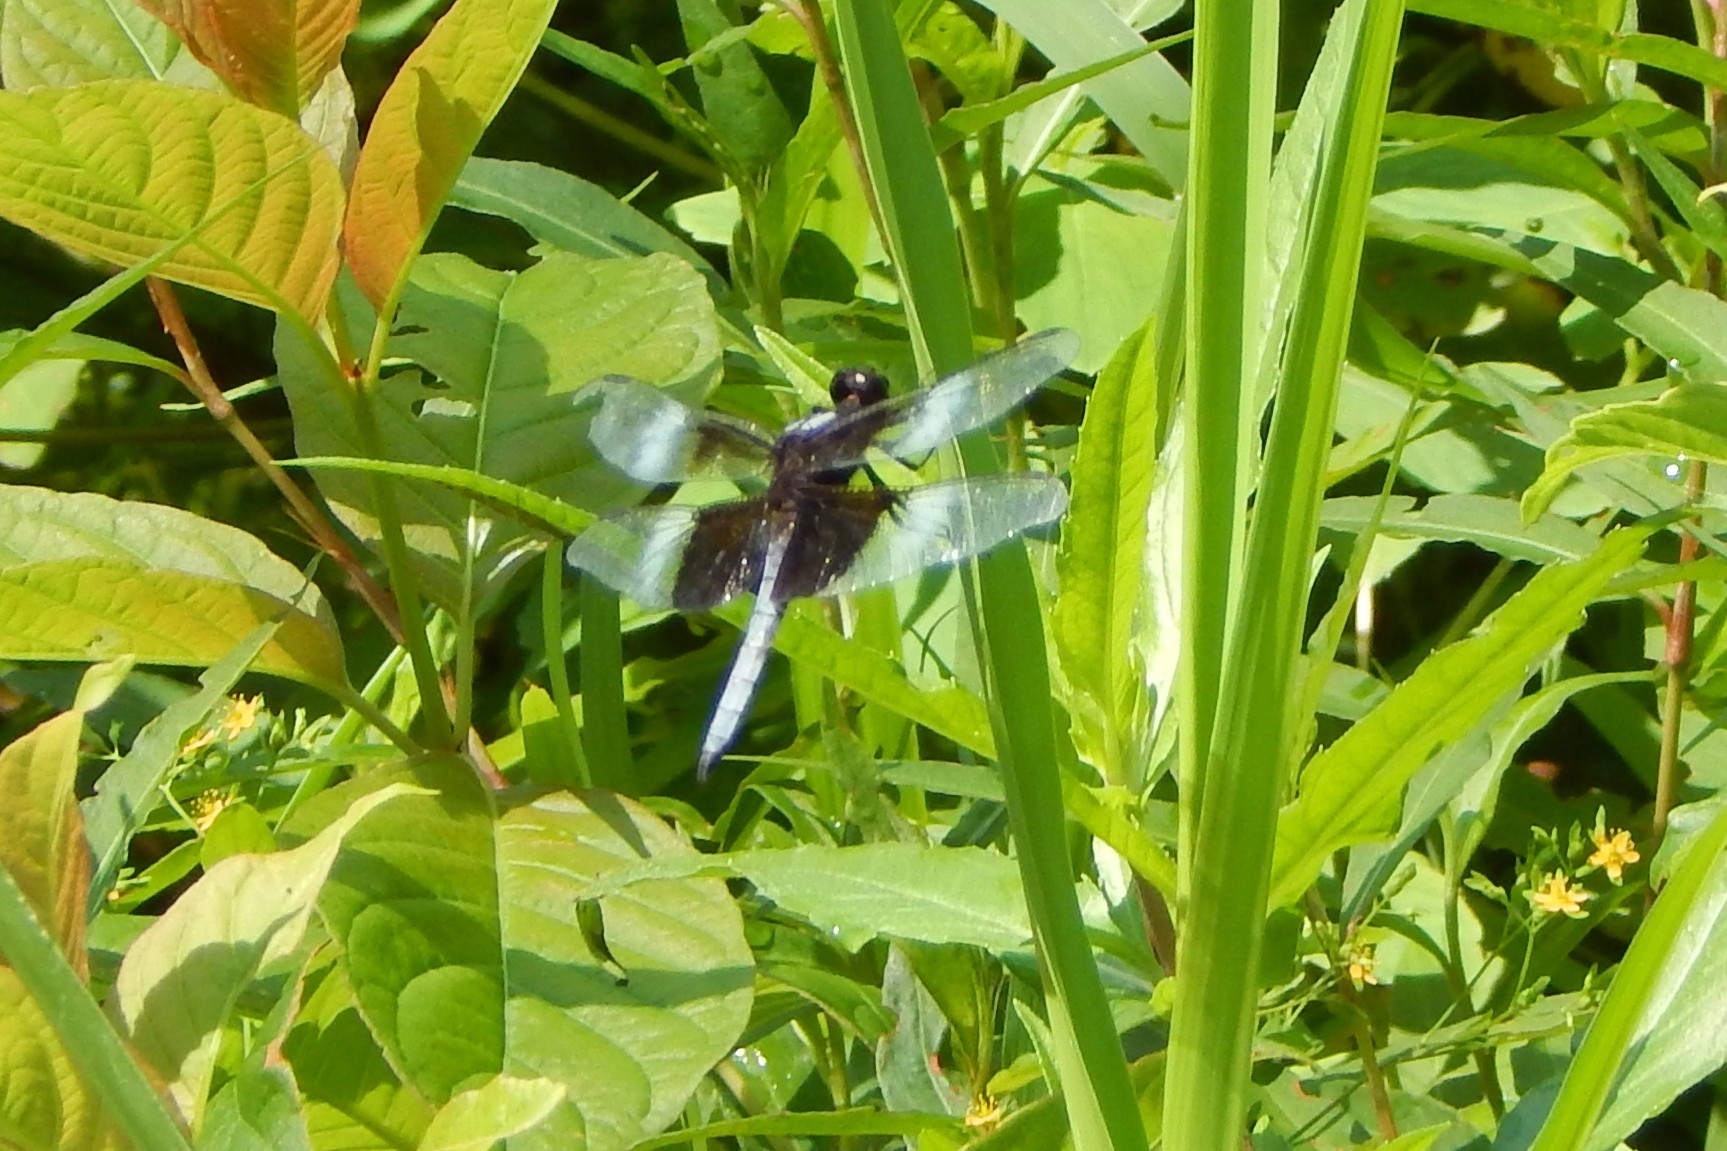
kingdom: Animalia
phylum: Arthropoda
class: Insecta
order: Odonata
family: Libellulidae
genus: Libellula
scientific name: Libellula luctuosa
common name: Widow skimmer
